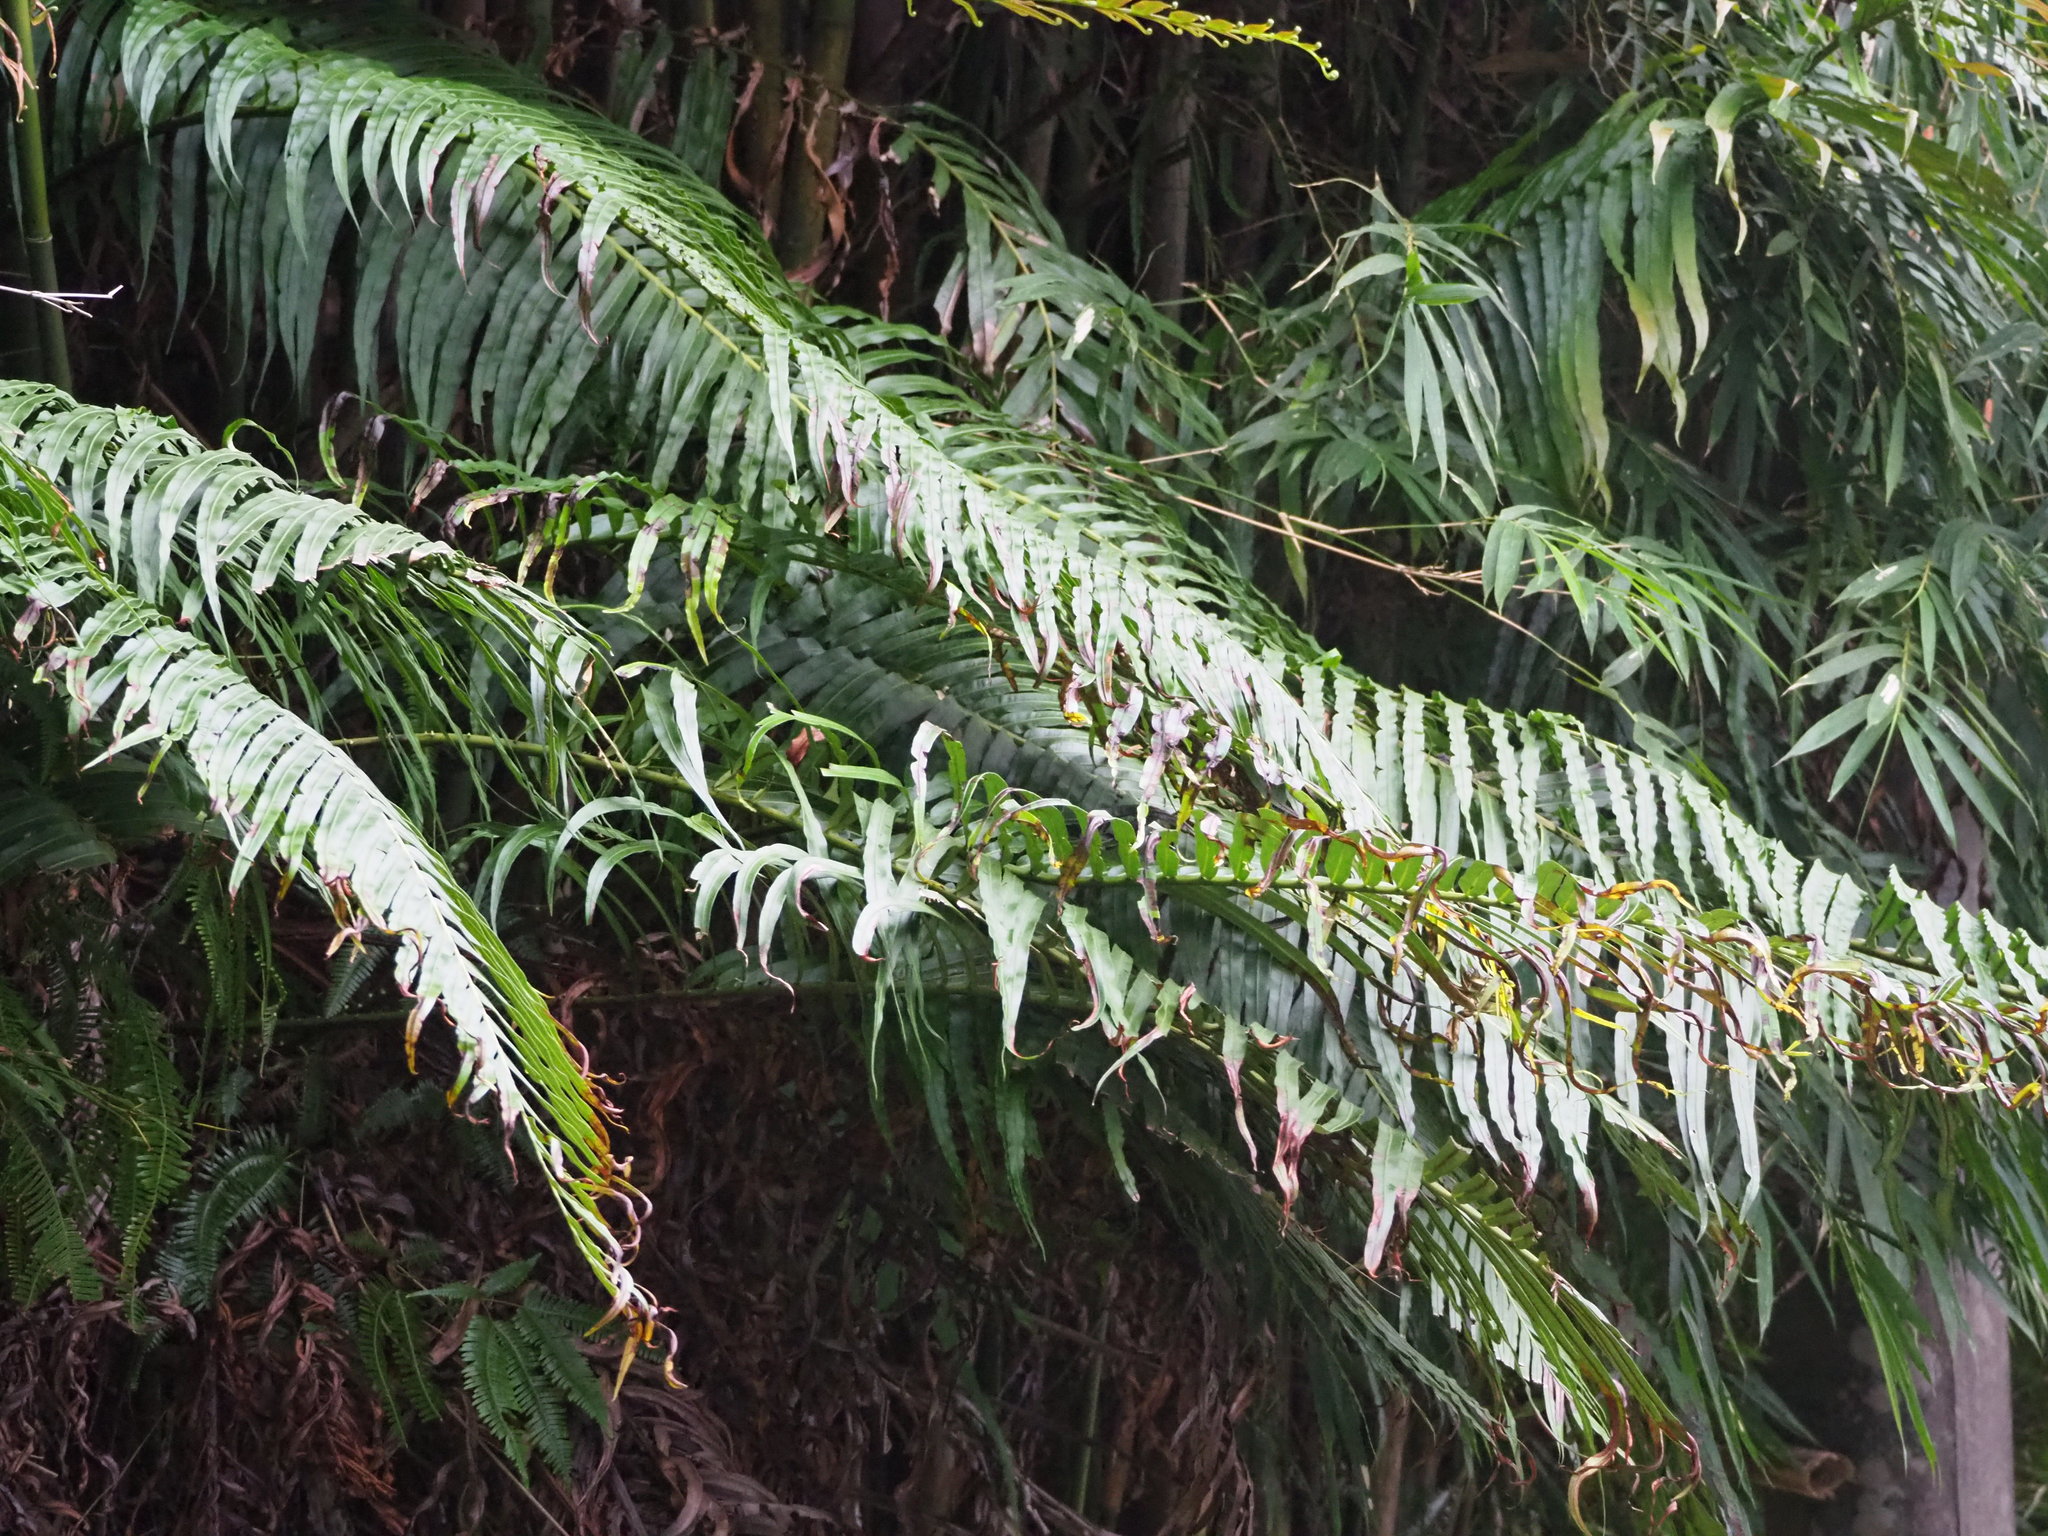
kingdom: Plantae
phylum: Tracheophyta
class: Polypodiopsida
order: Polypodiales
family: Blechnaceae
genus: Blechnopsis
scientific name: Blechnopsis orientalis
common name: Oriental blechnum
